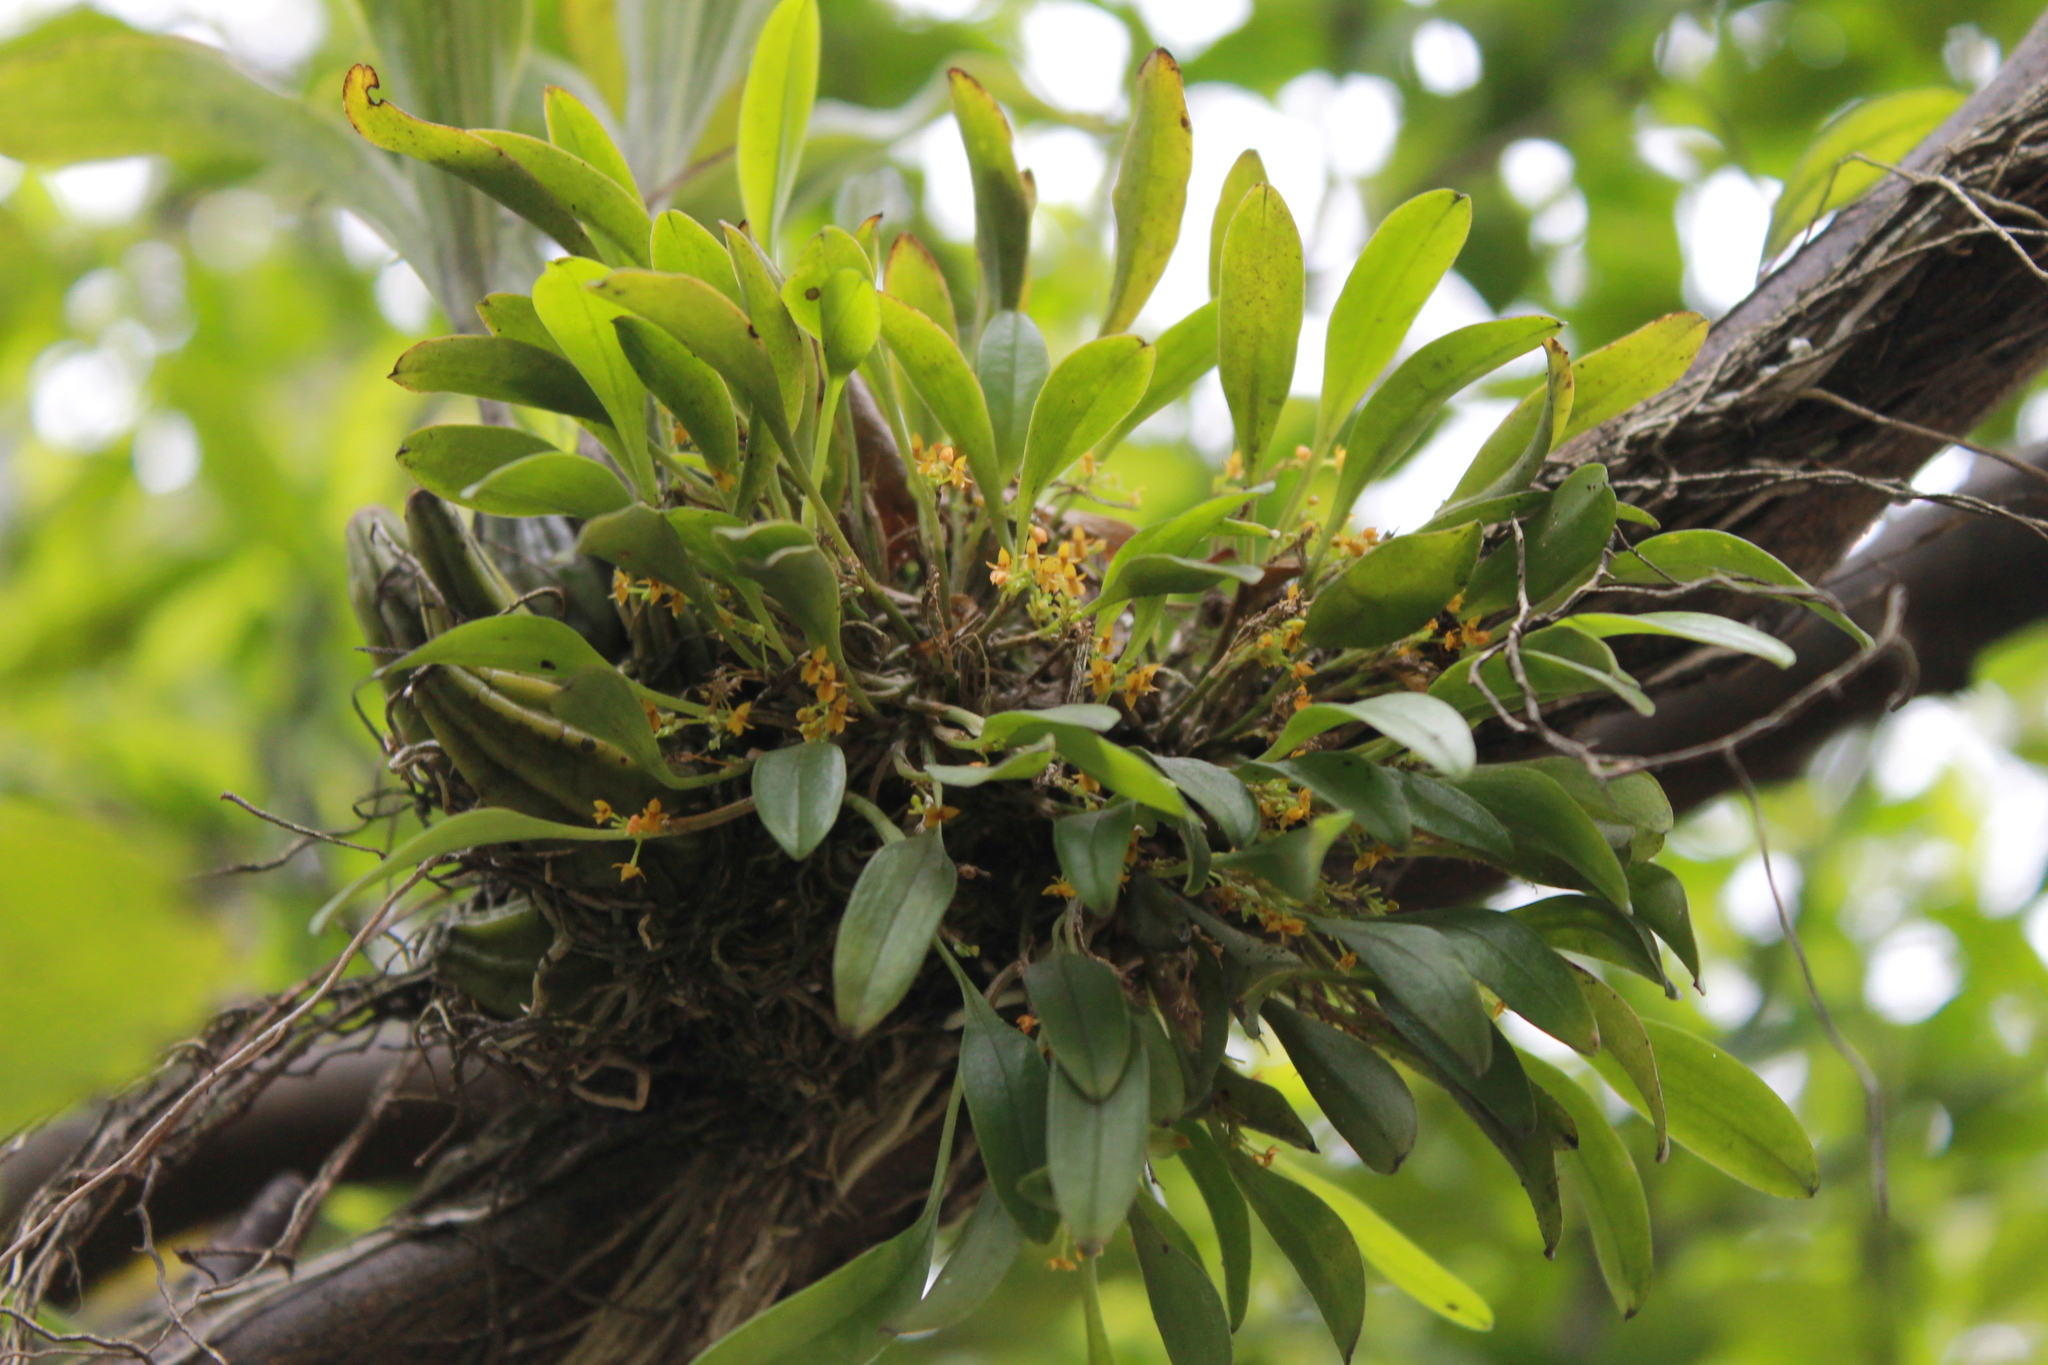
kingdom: Plantae
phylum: Tracheophyta
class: Liliopsida
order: Asparagales
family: Orchidaceae
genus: Platystele
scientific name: Platystele stenostachya
